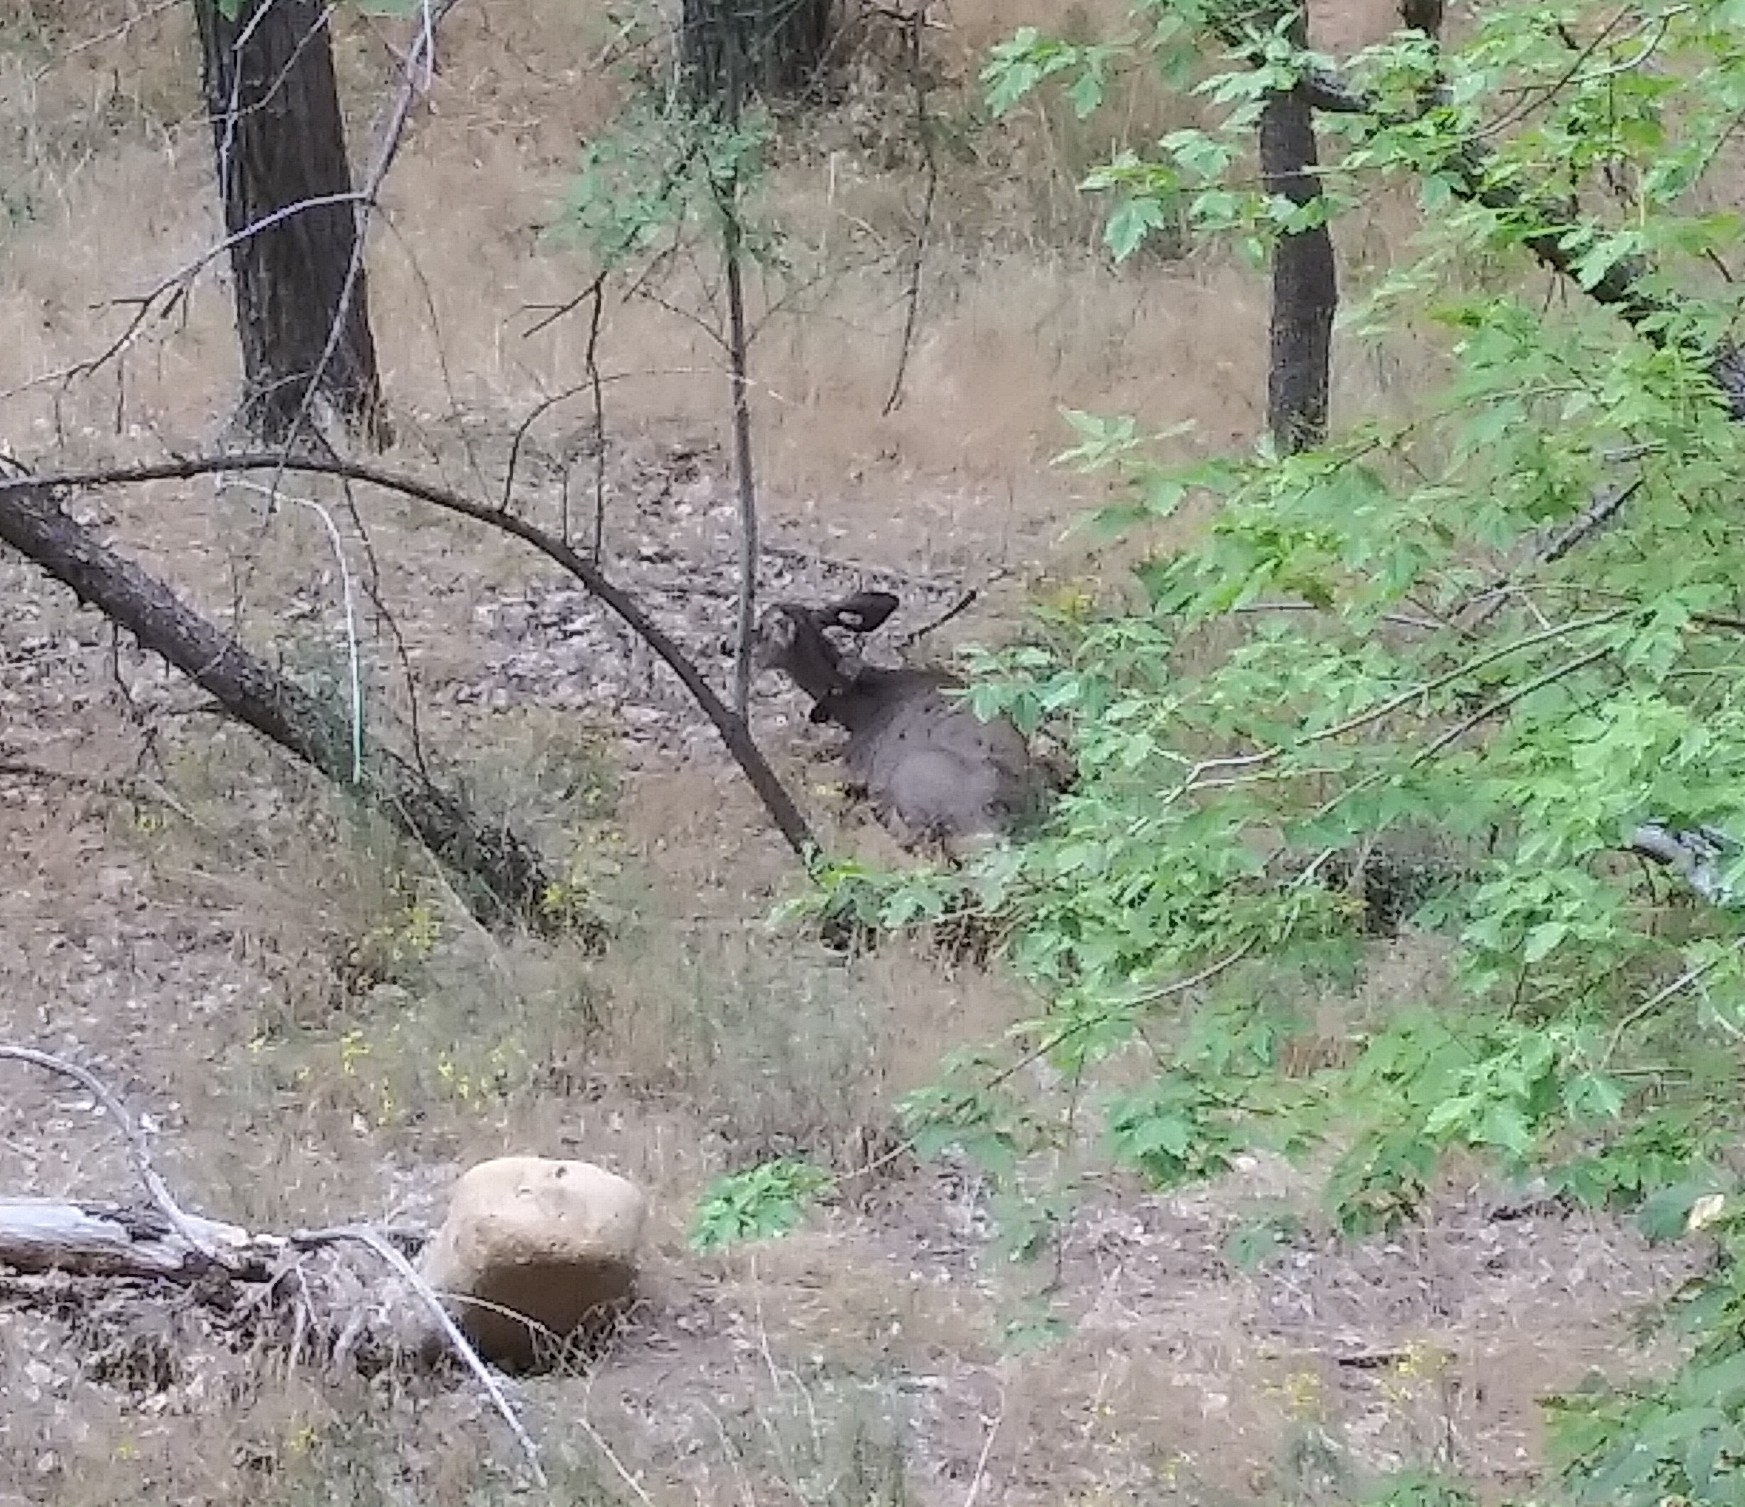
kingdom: Animalia
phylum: Chordata
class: Mammalia
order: Artiodactyla
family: Cervidae
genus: Odocoileus
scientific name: Odocoileus hemionus
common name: Mule deer
